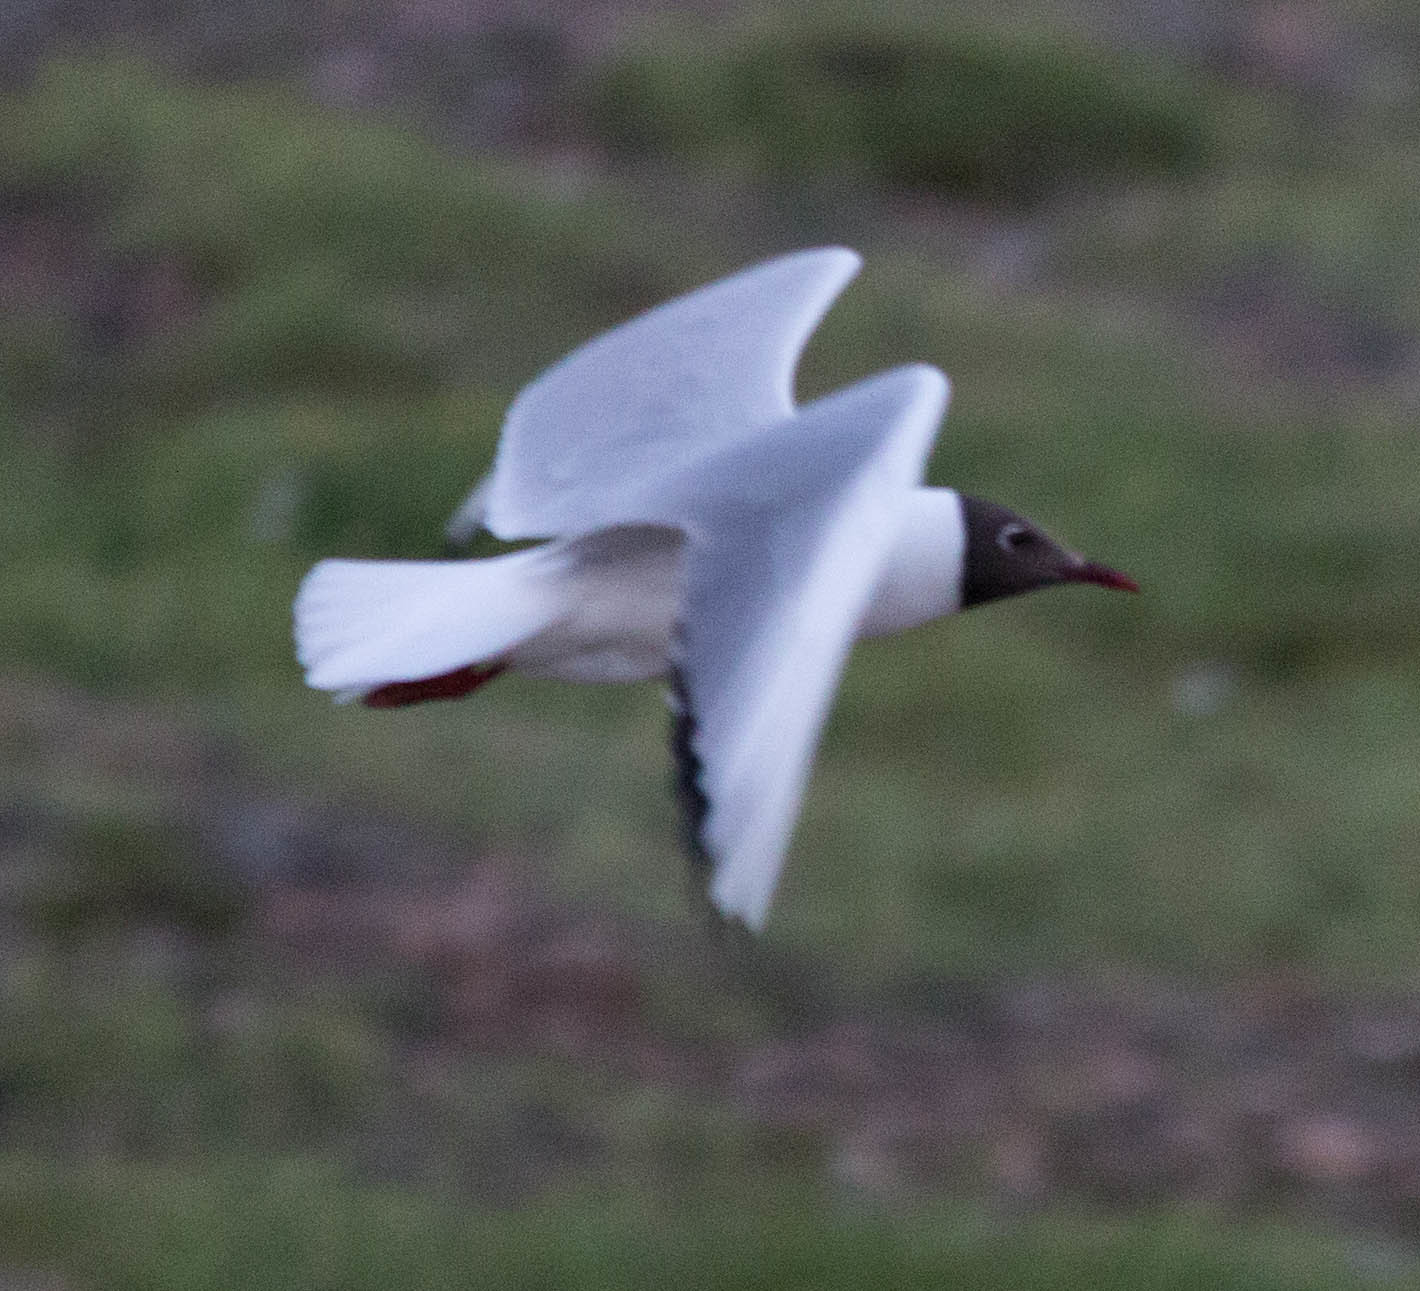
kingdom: Animalia
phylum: Chordata
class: Aves
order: Charadriiformes
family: Laridae
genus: Chroicocephalus
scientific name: Chroicocephalus ridibundus
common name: Black-headed gull
